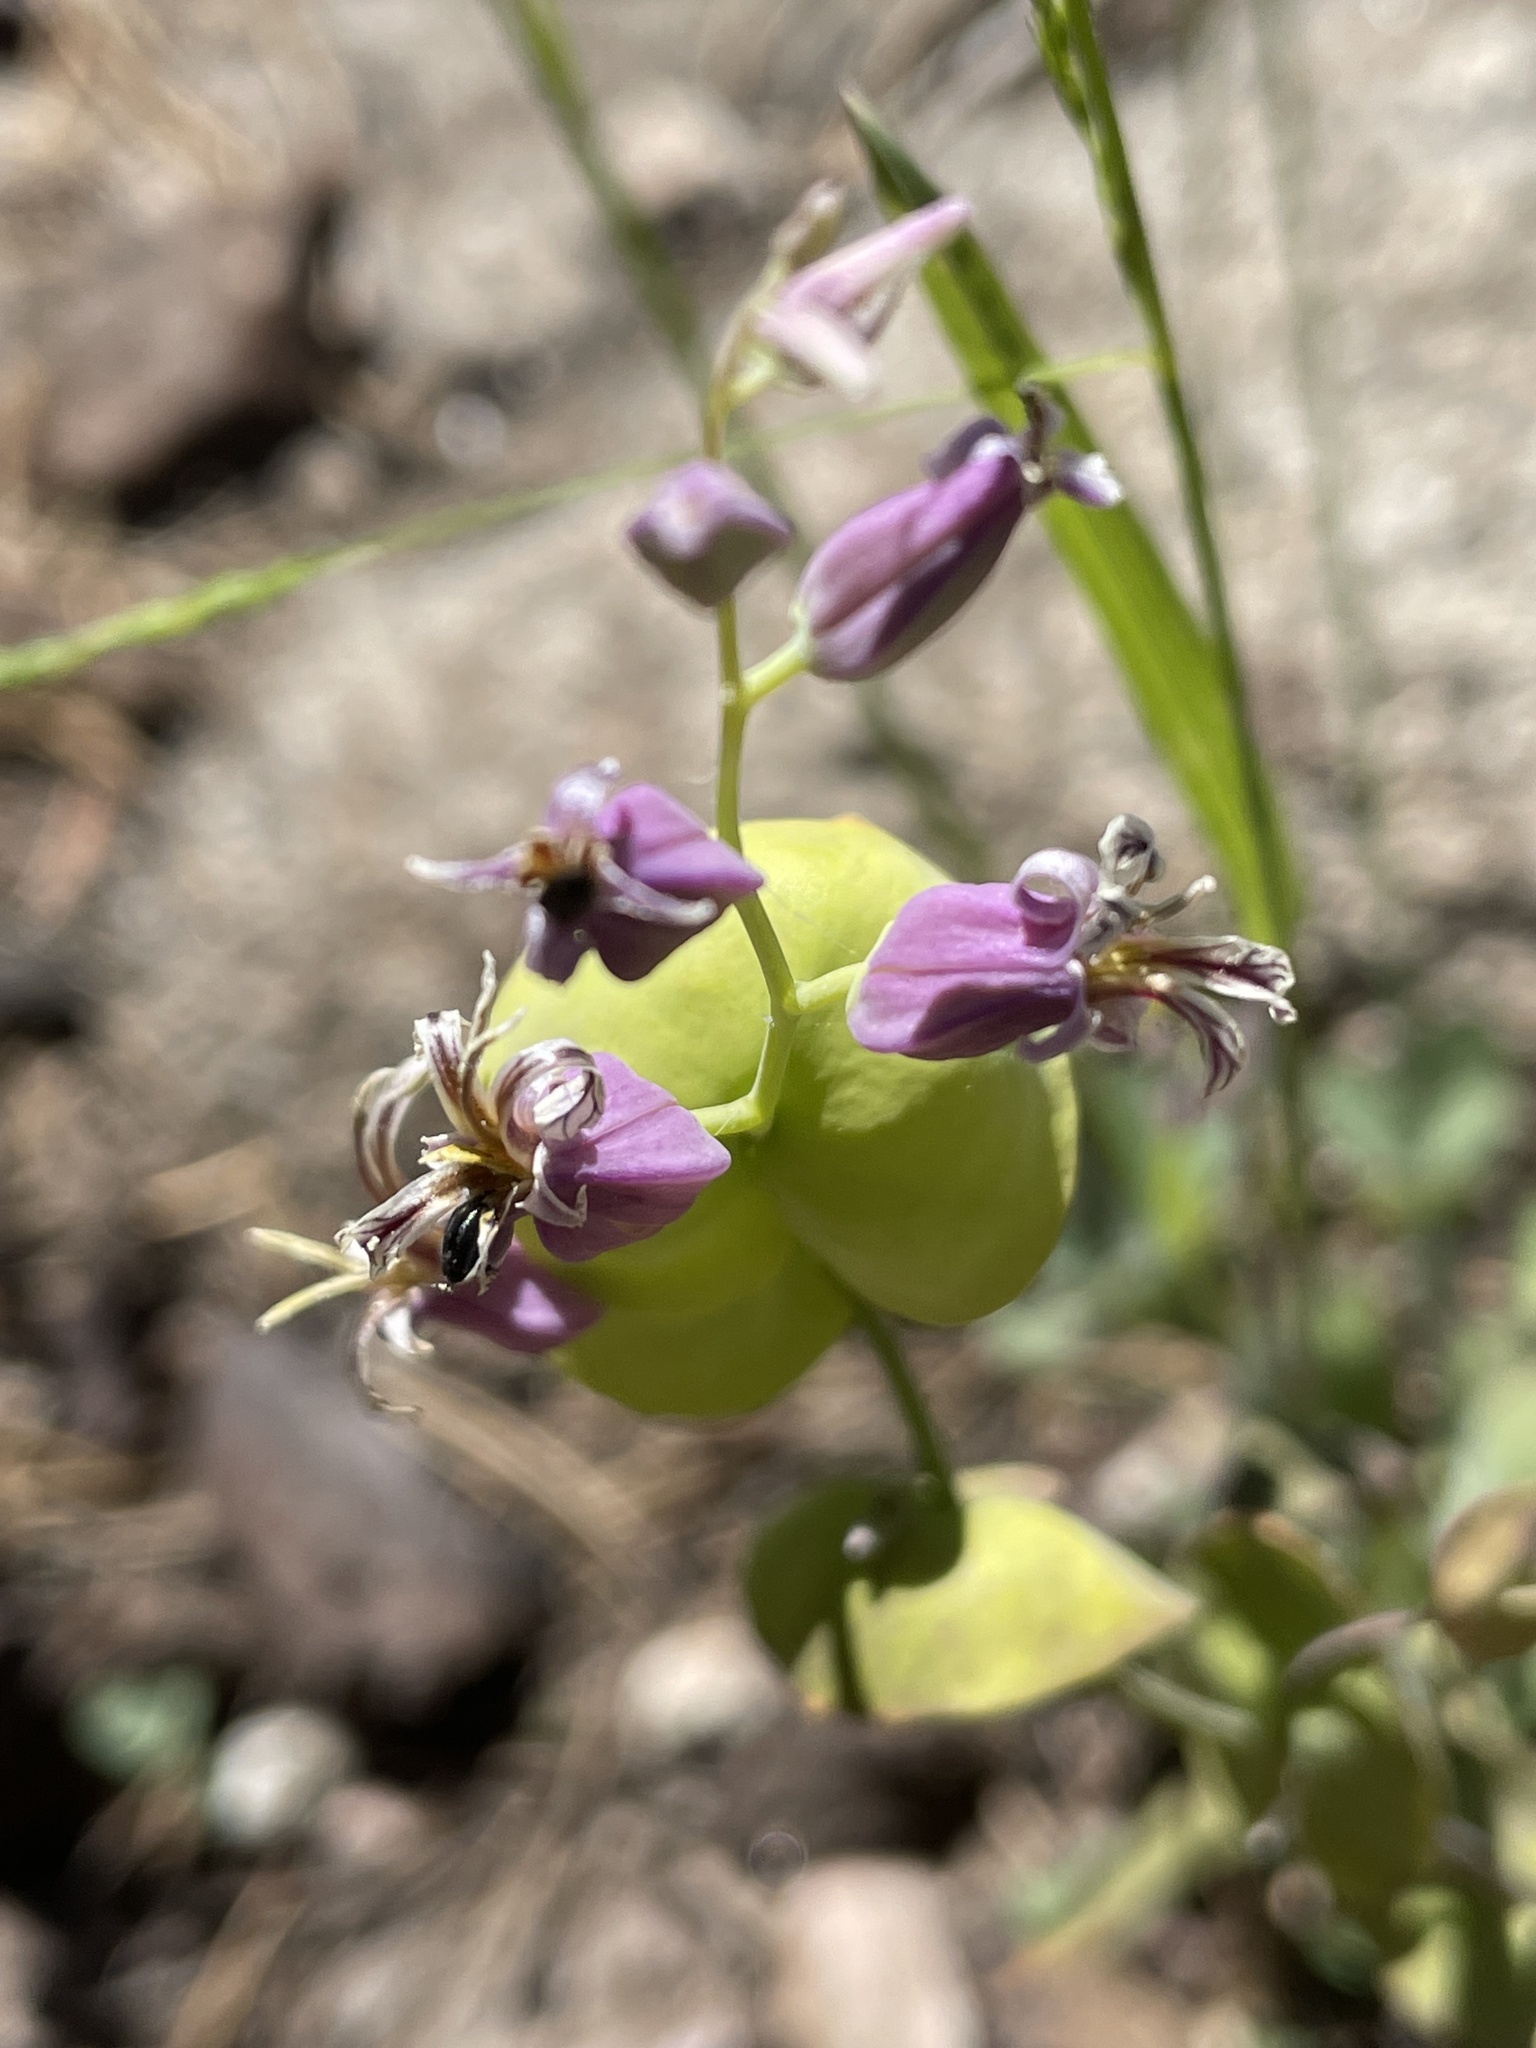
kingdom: Plantae
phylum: Tracheophyta
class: Magnoliopsida
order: Brassicales
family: Brassicaceae
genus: Streptanthus
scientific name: Streptanthus tortuosus
